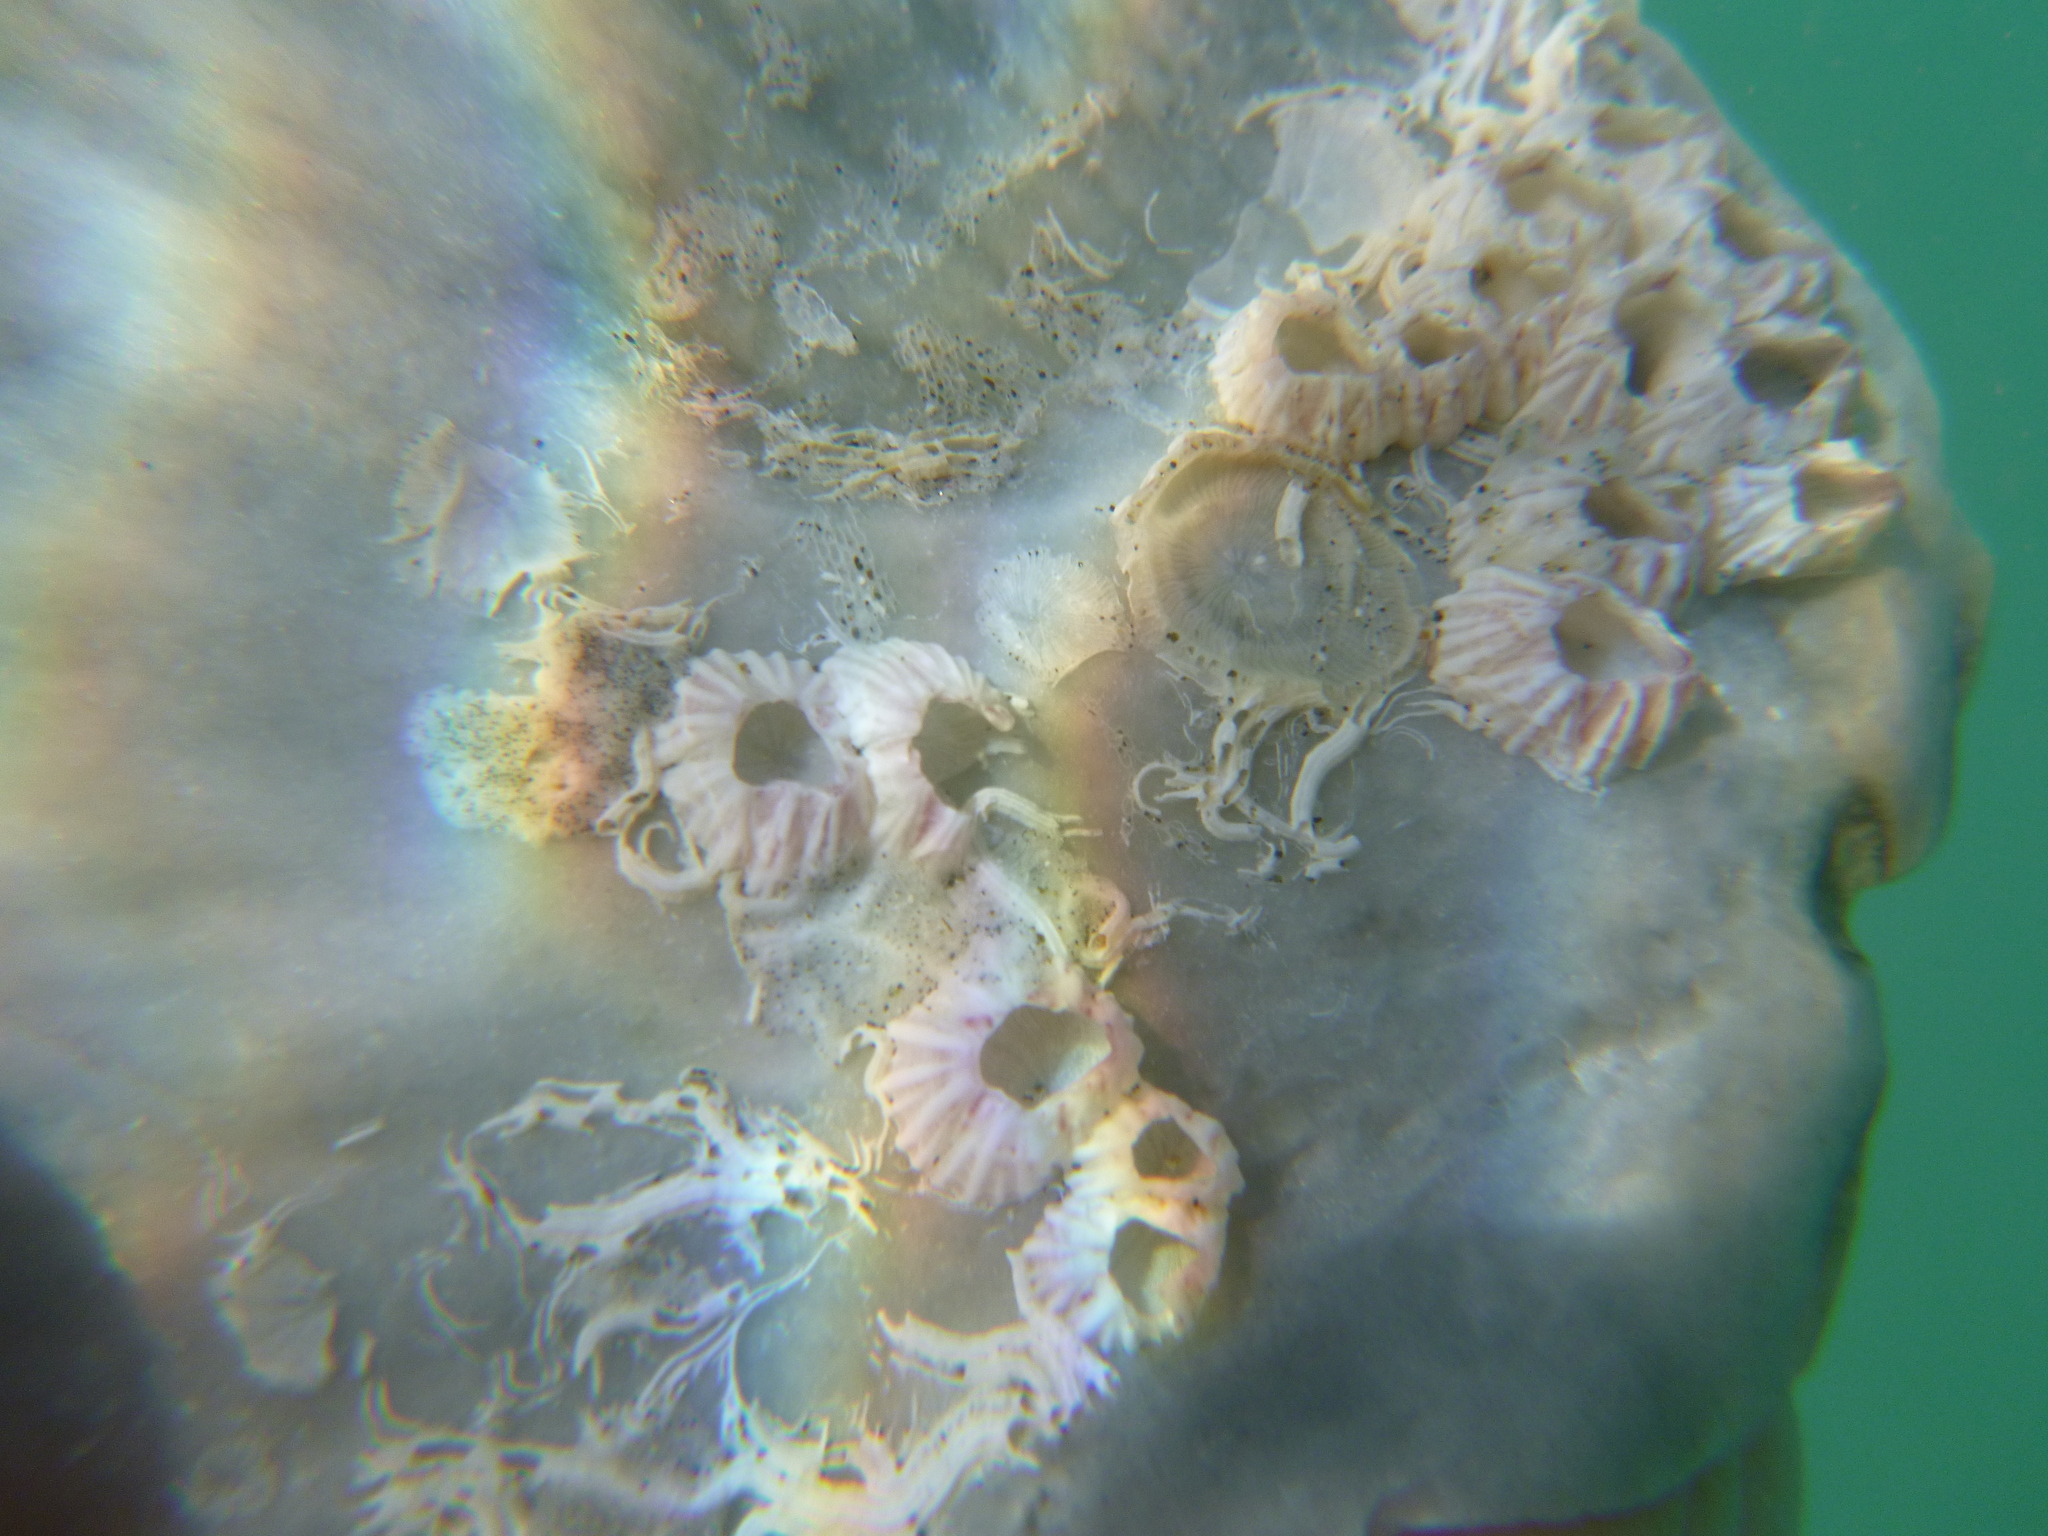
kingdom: Animalia
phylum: Arthropoda
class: Maxillopoda
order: Sessilia
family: Balanidae
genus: Balanus
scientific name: Balanus trigonus
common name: Triangle barnacle
